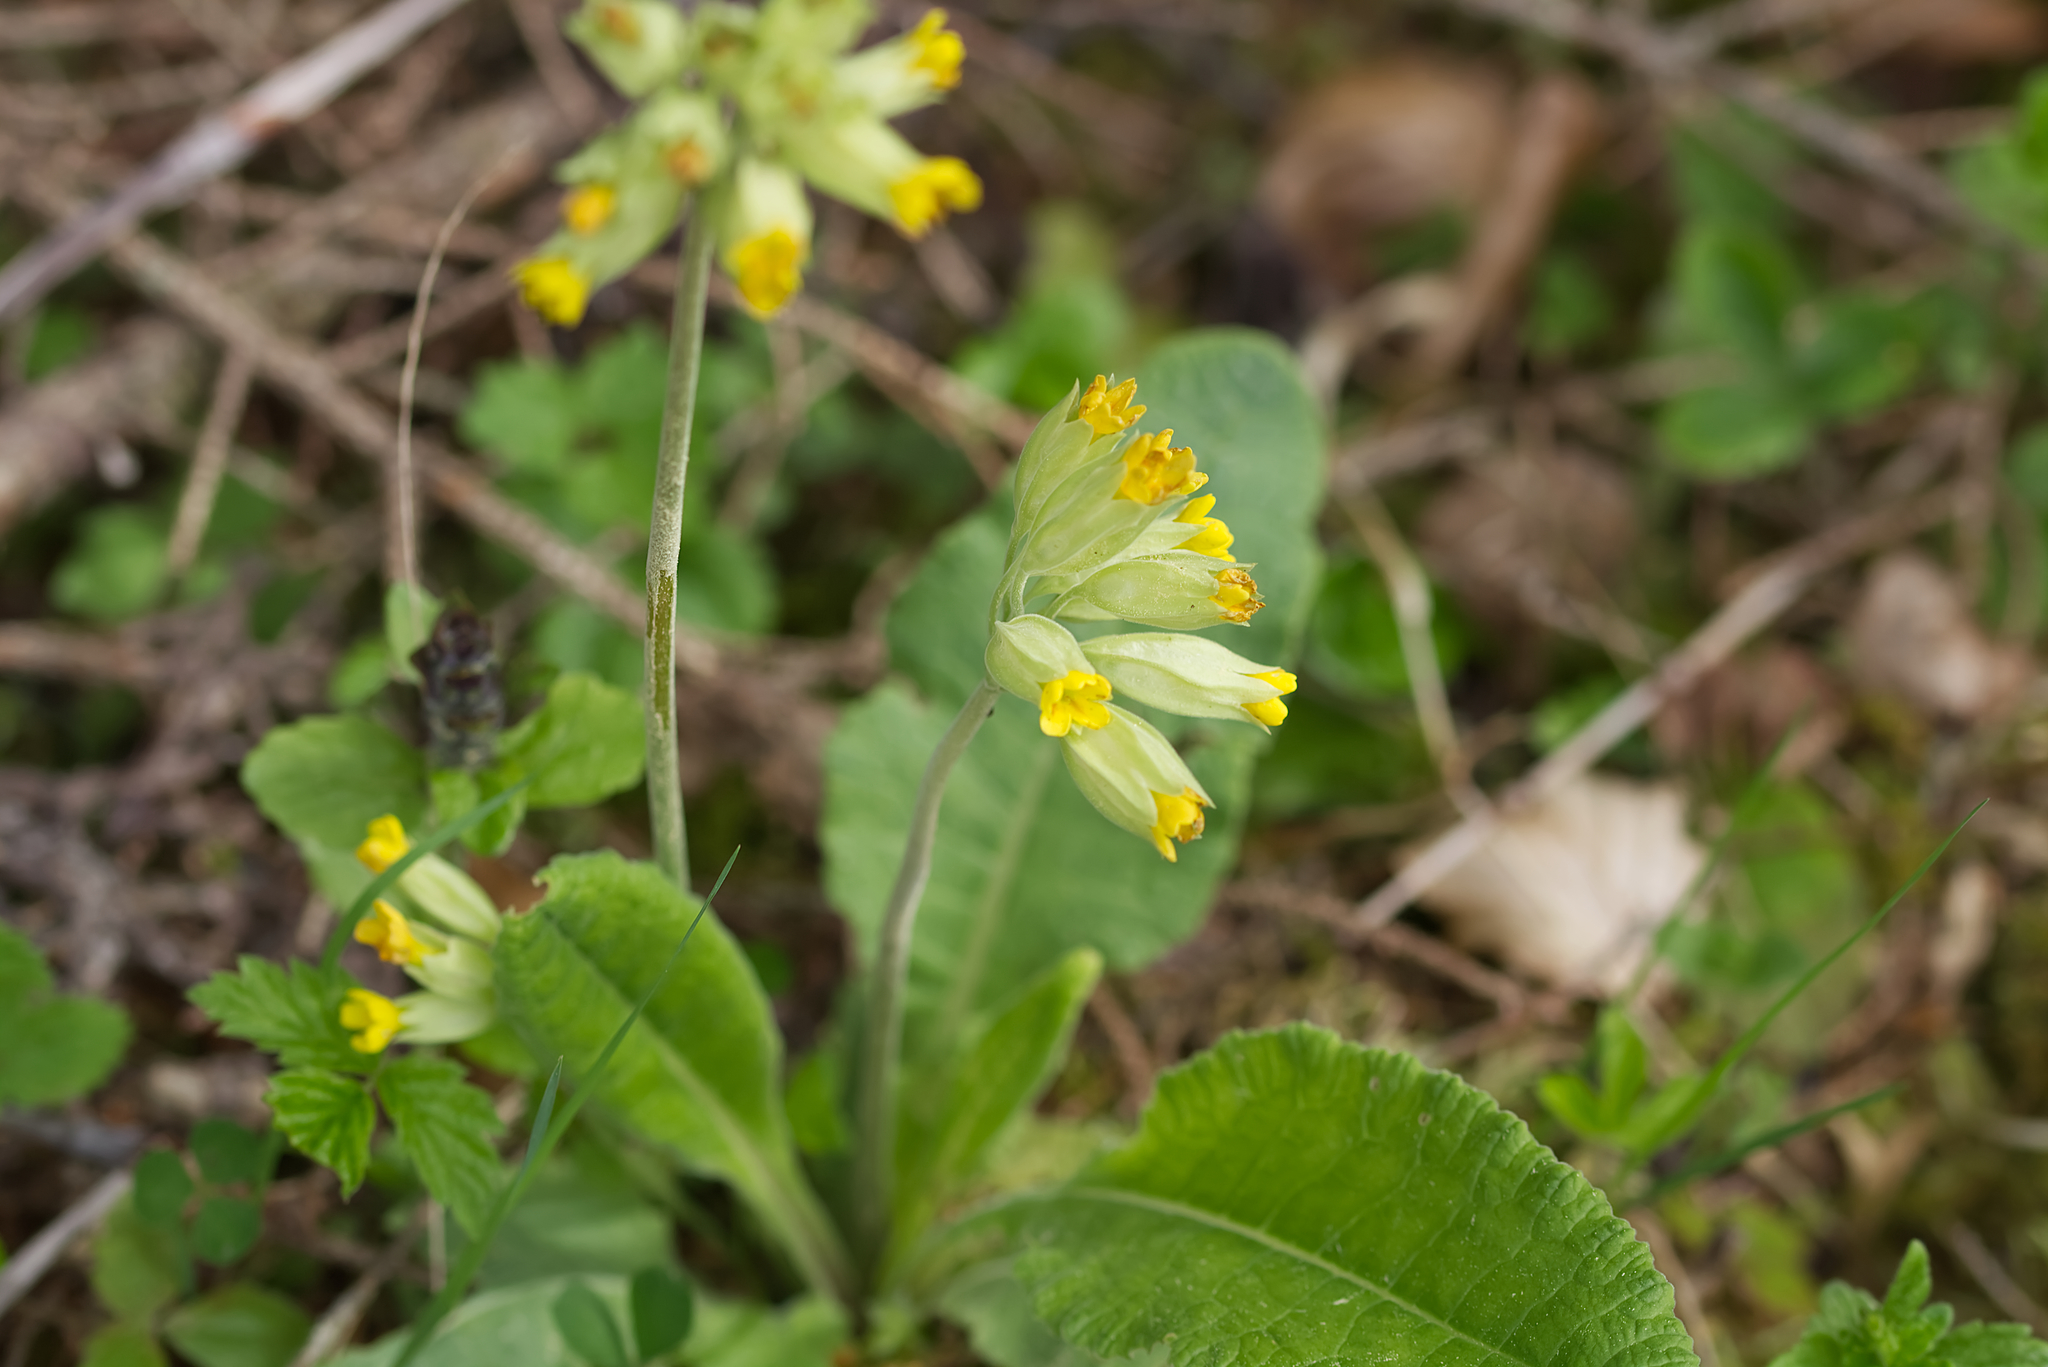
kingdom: Plantae
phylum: Tracheophyta
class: Magnoliopsida
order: Ericales
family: Primulaceae
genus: Primula
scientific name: Primula veris
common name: Cowslip
